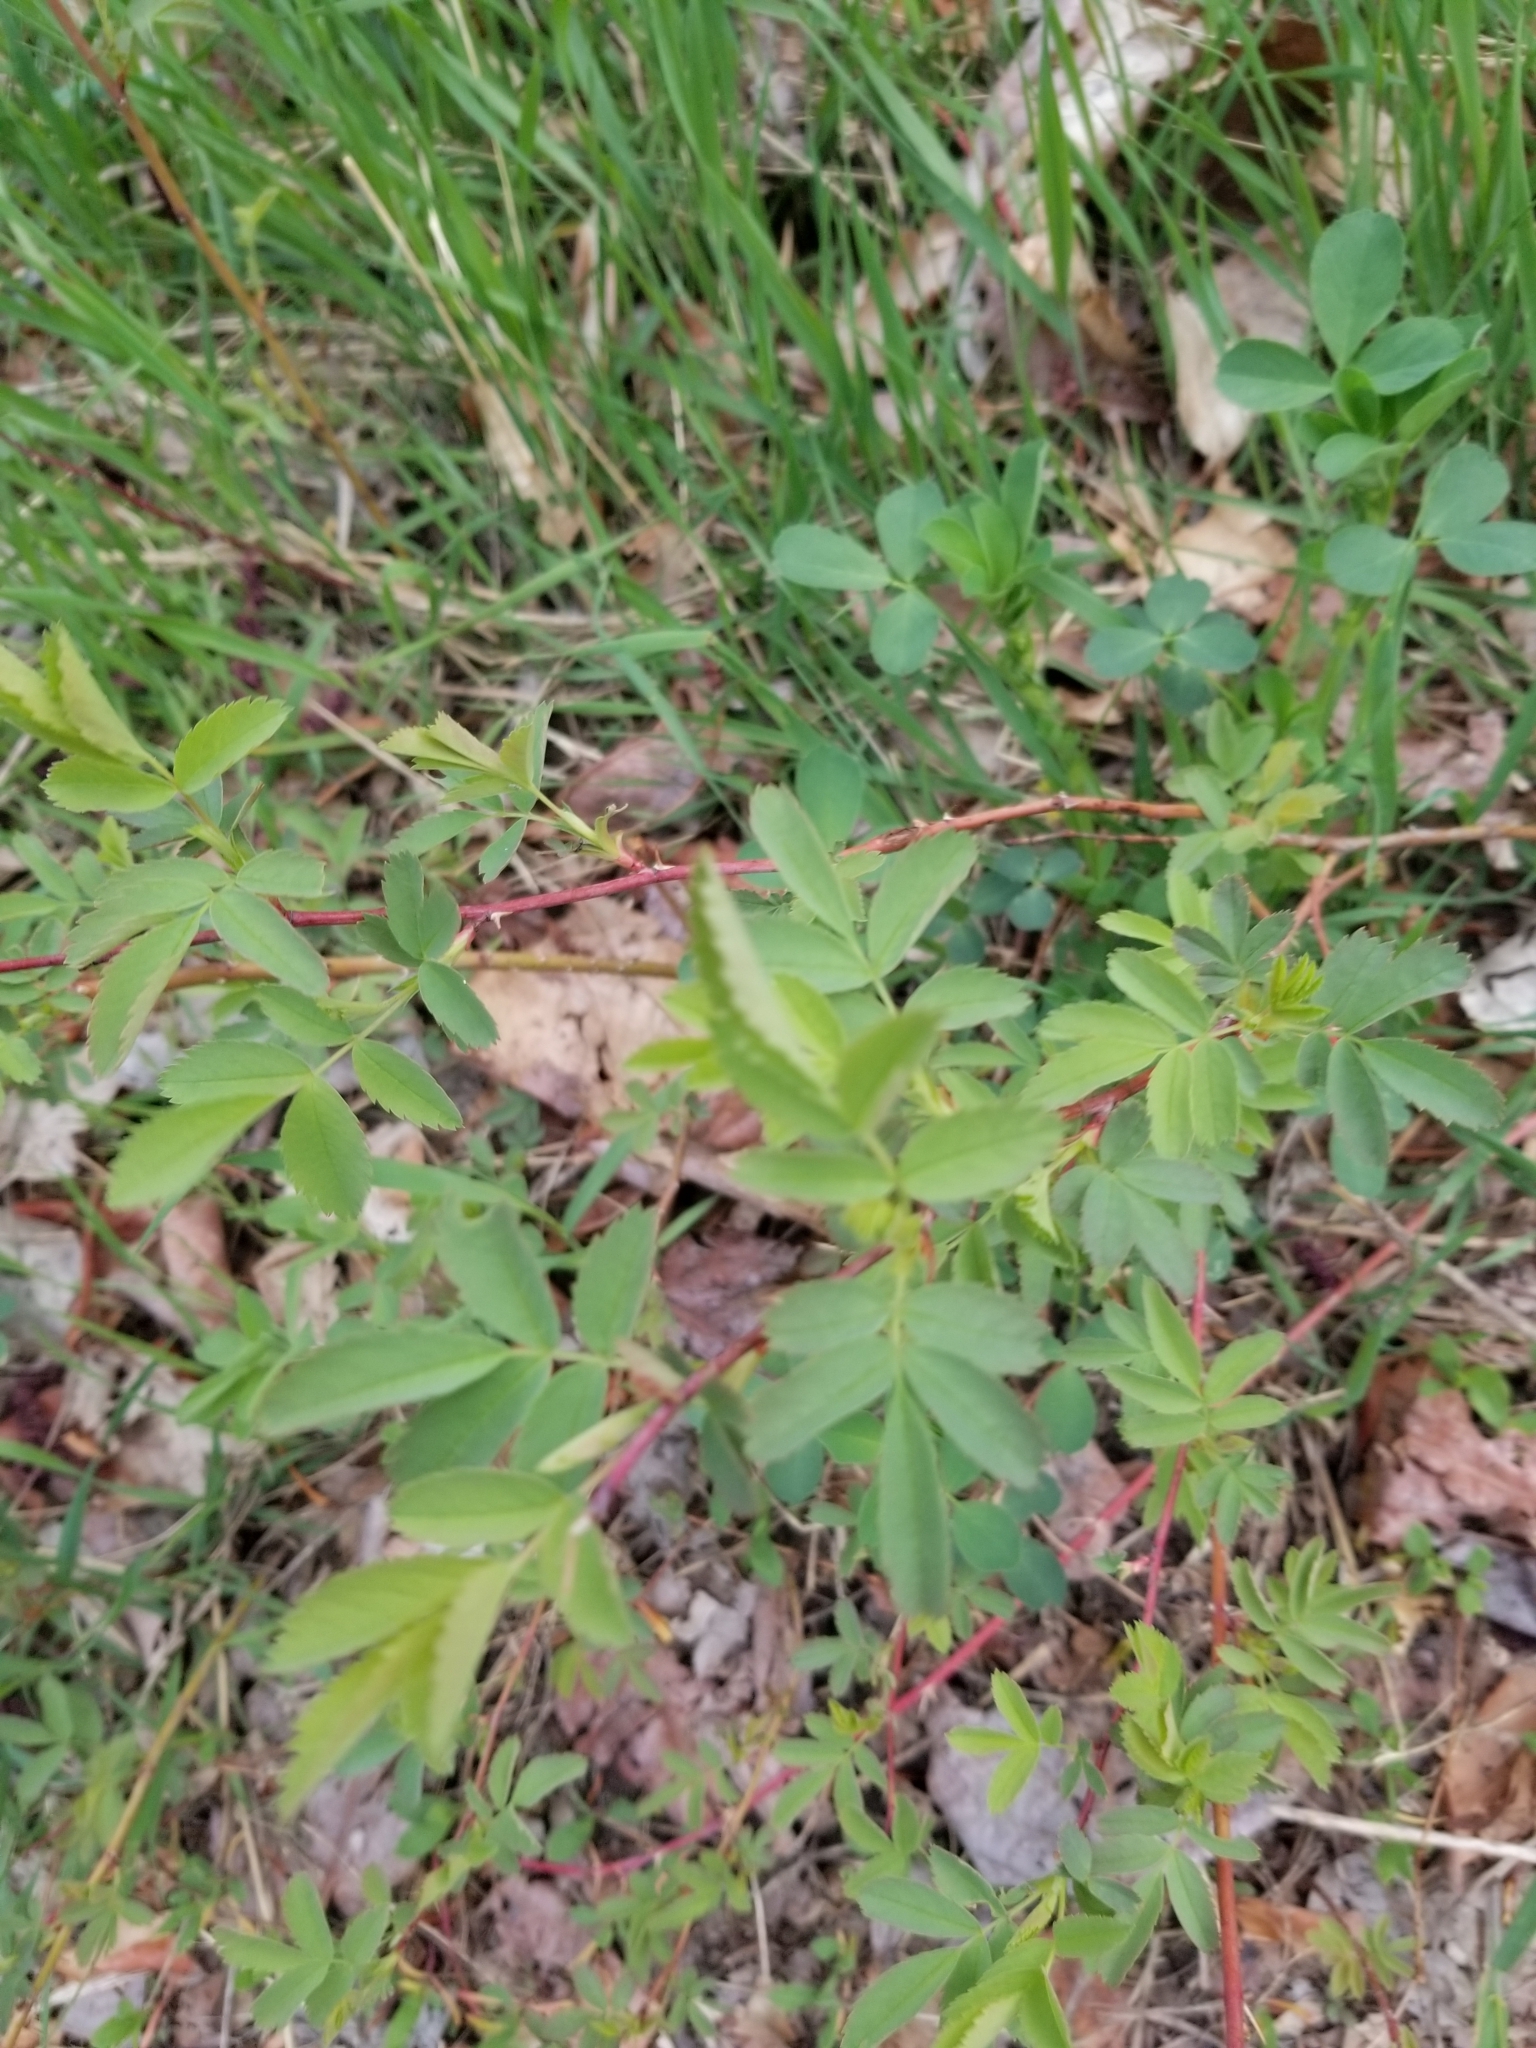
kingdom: Plantae
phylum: Tracheophyta
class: Magnoliopsida
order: Rosales
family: Rosaceae
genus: Rosa
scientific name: Rosa woodsii
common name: Woods's rose
